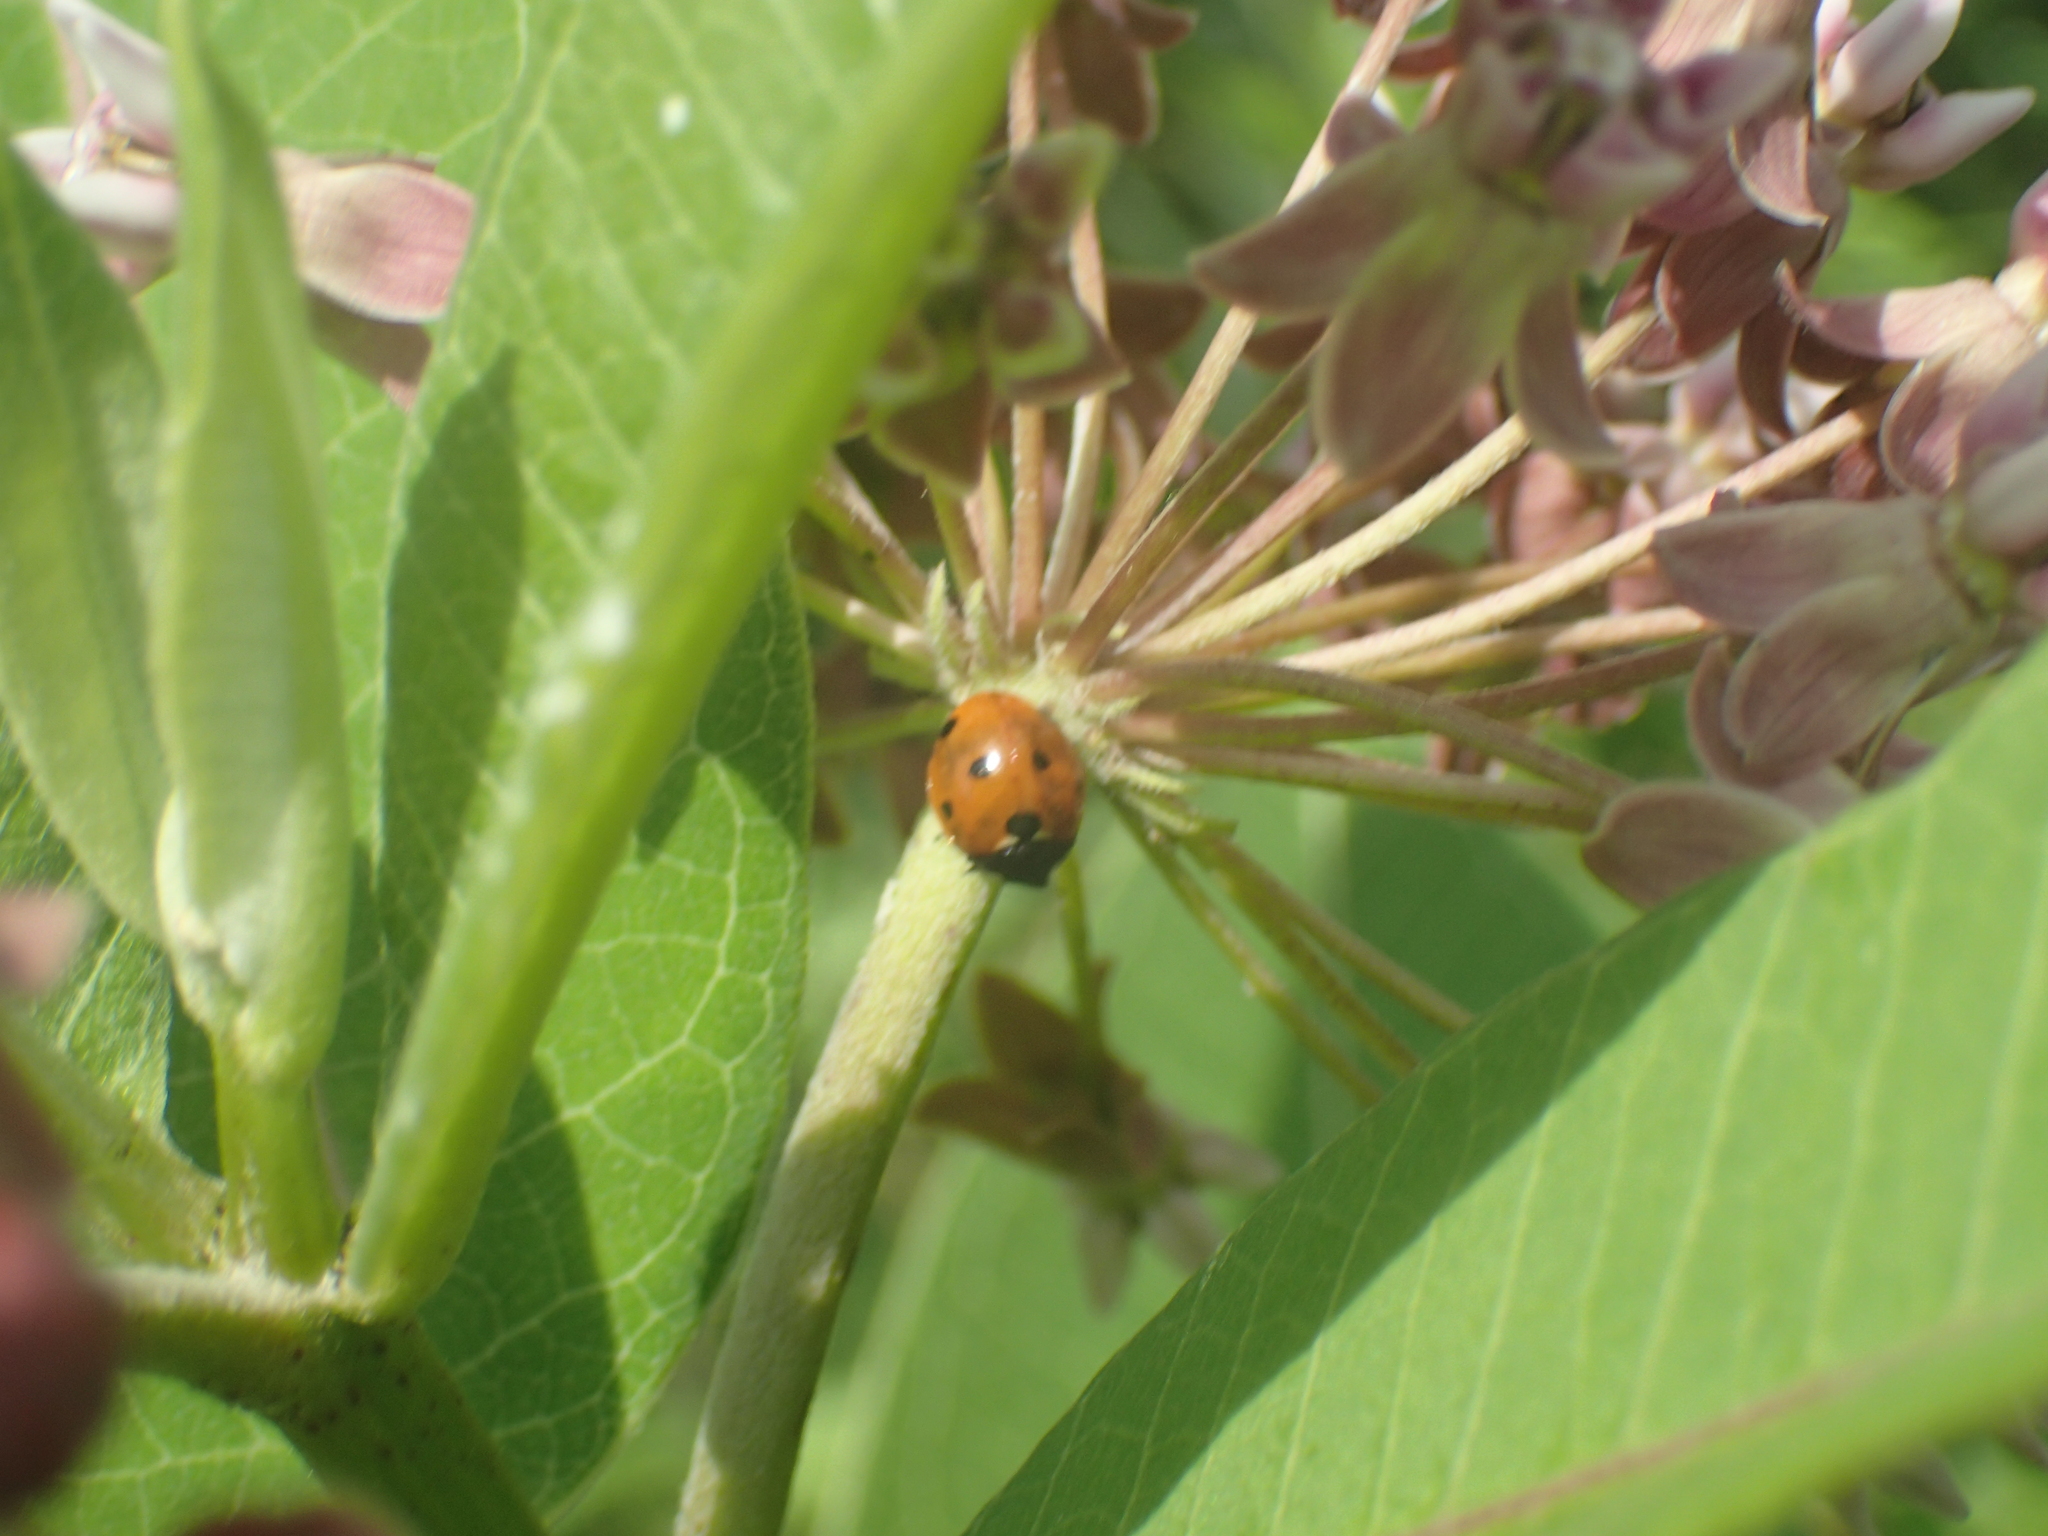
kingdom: Animalia
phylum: Arthropoda
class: Insecta
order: Coleoptera
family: Coccinellidae
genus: Coccinella
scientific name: Coccinella septempunctata
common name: Sevenspotted lady beetle
